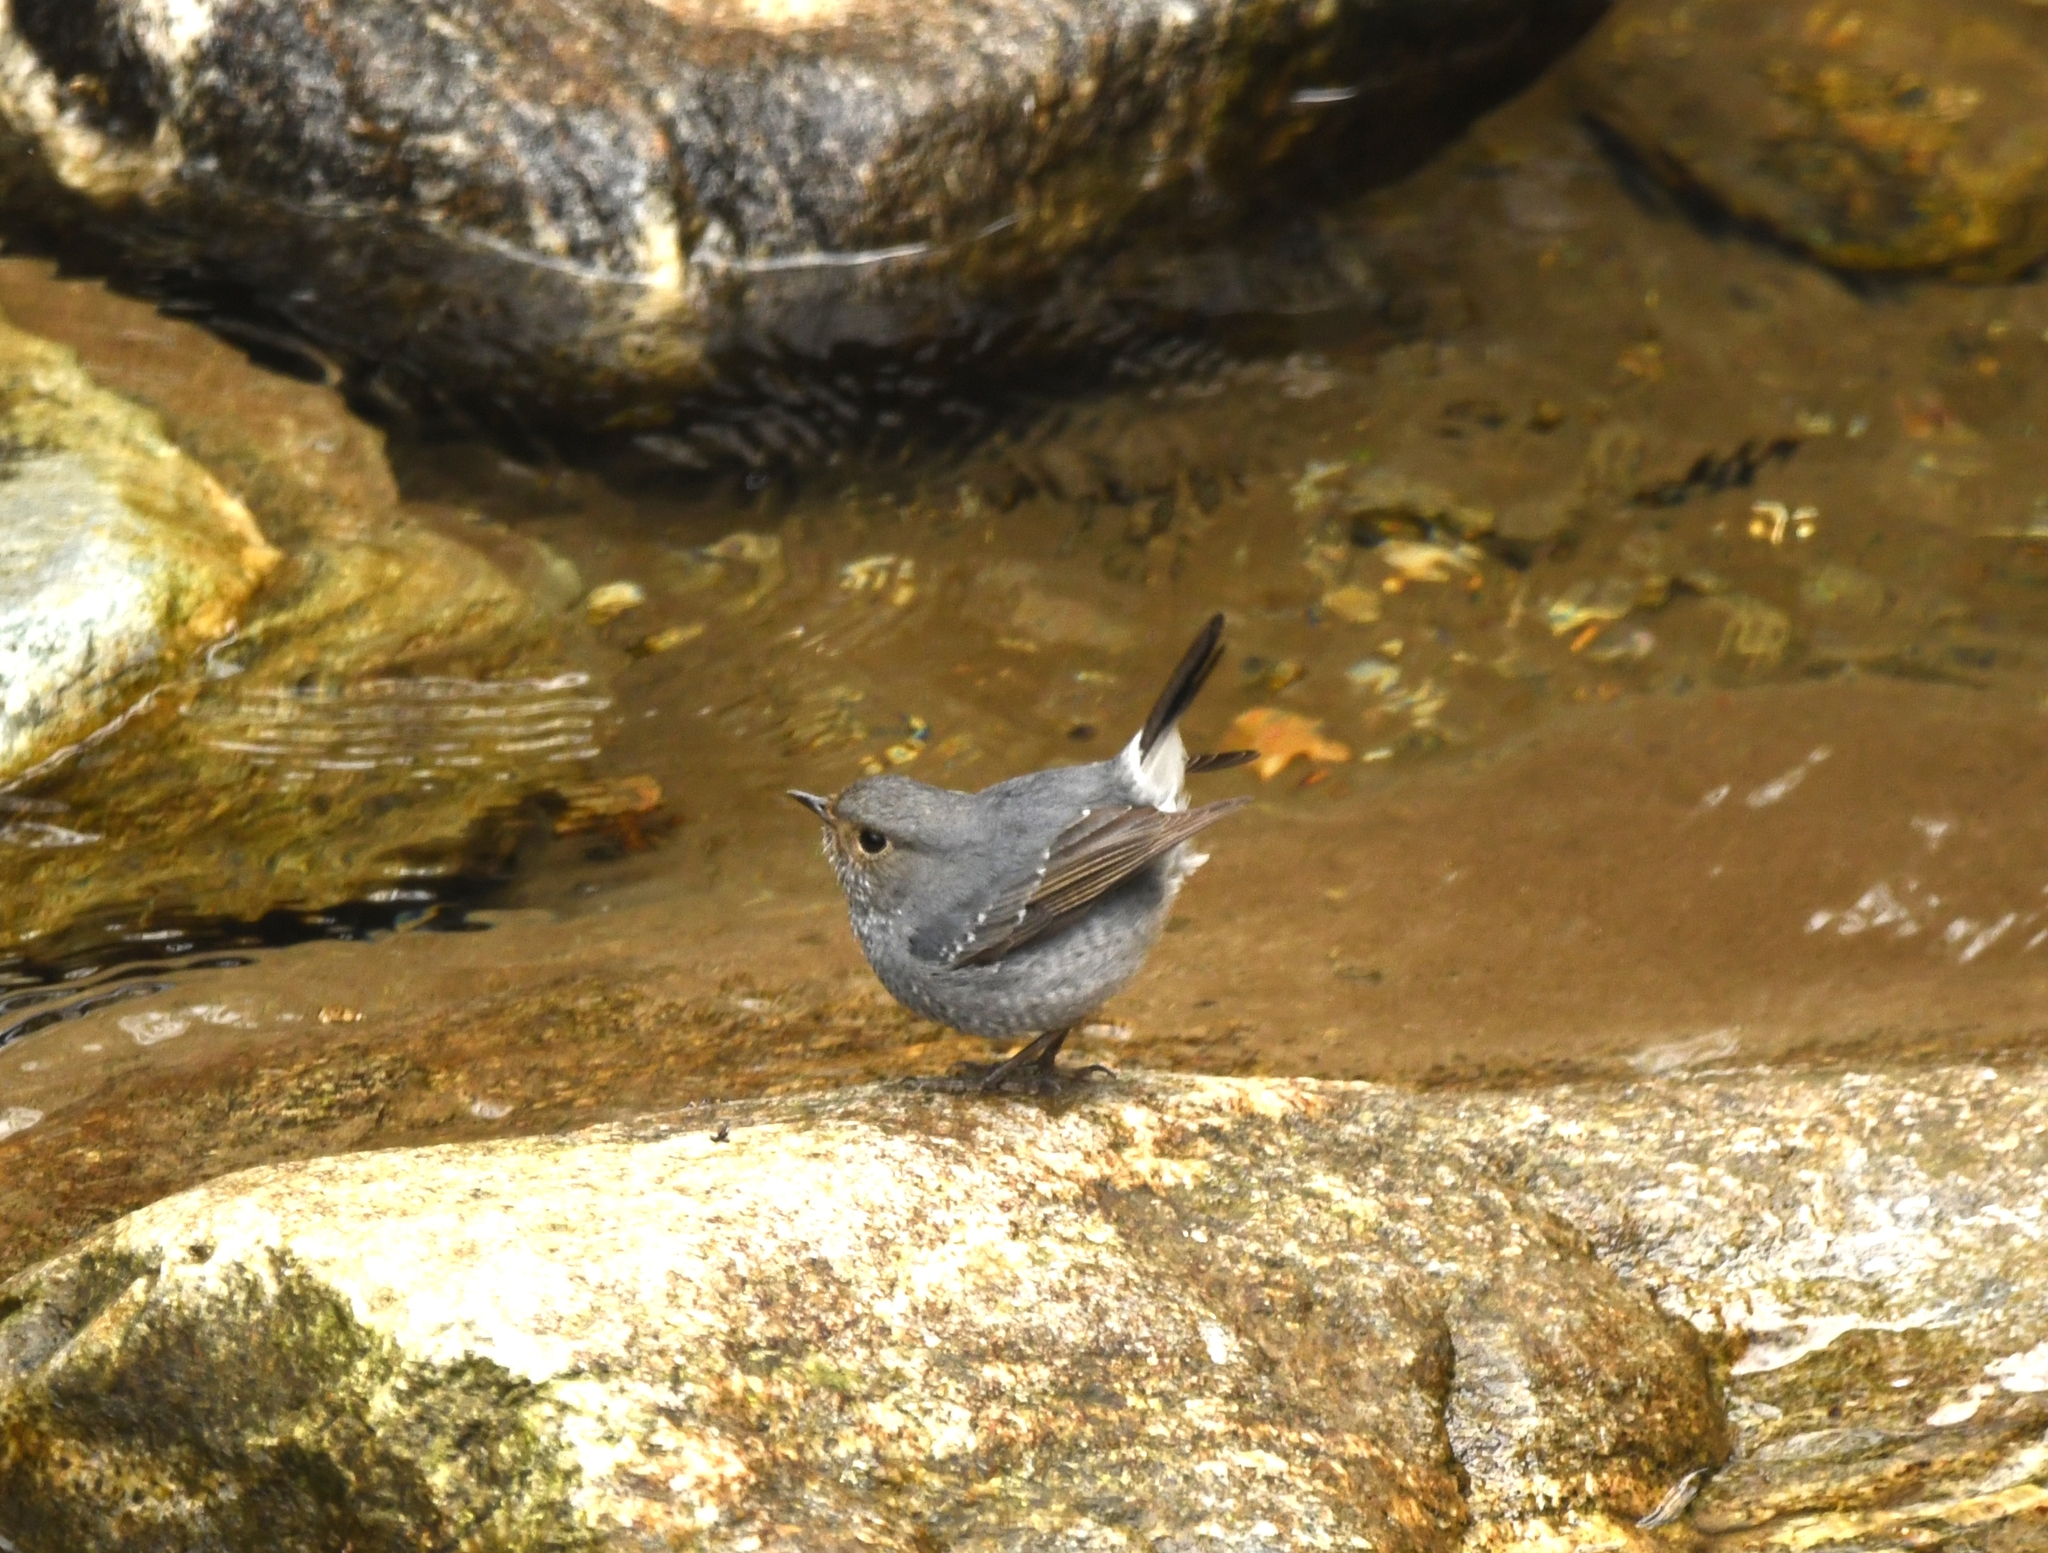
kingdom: Animalia
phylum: Chordata
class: Aves
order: Passeriformes
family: Muscicapidae
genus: Phoenicurus
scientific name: Phoenicurus fuliginosus
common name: Plumbeous water redstart
